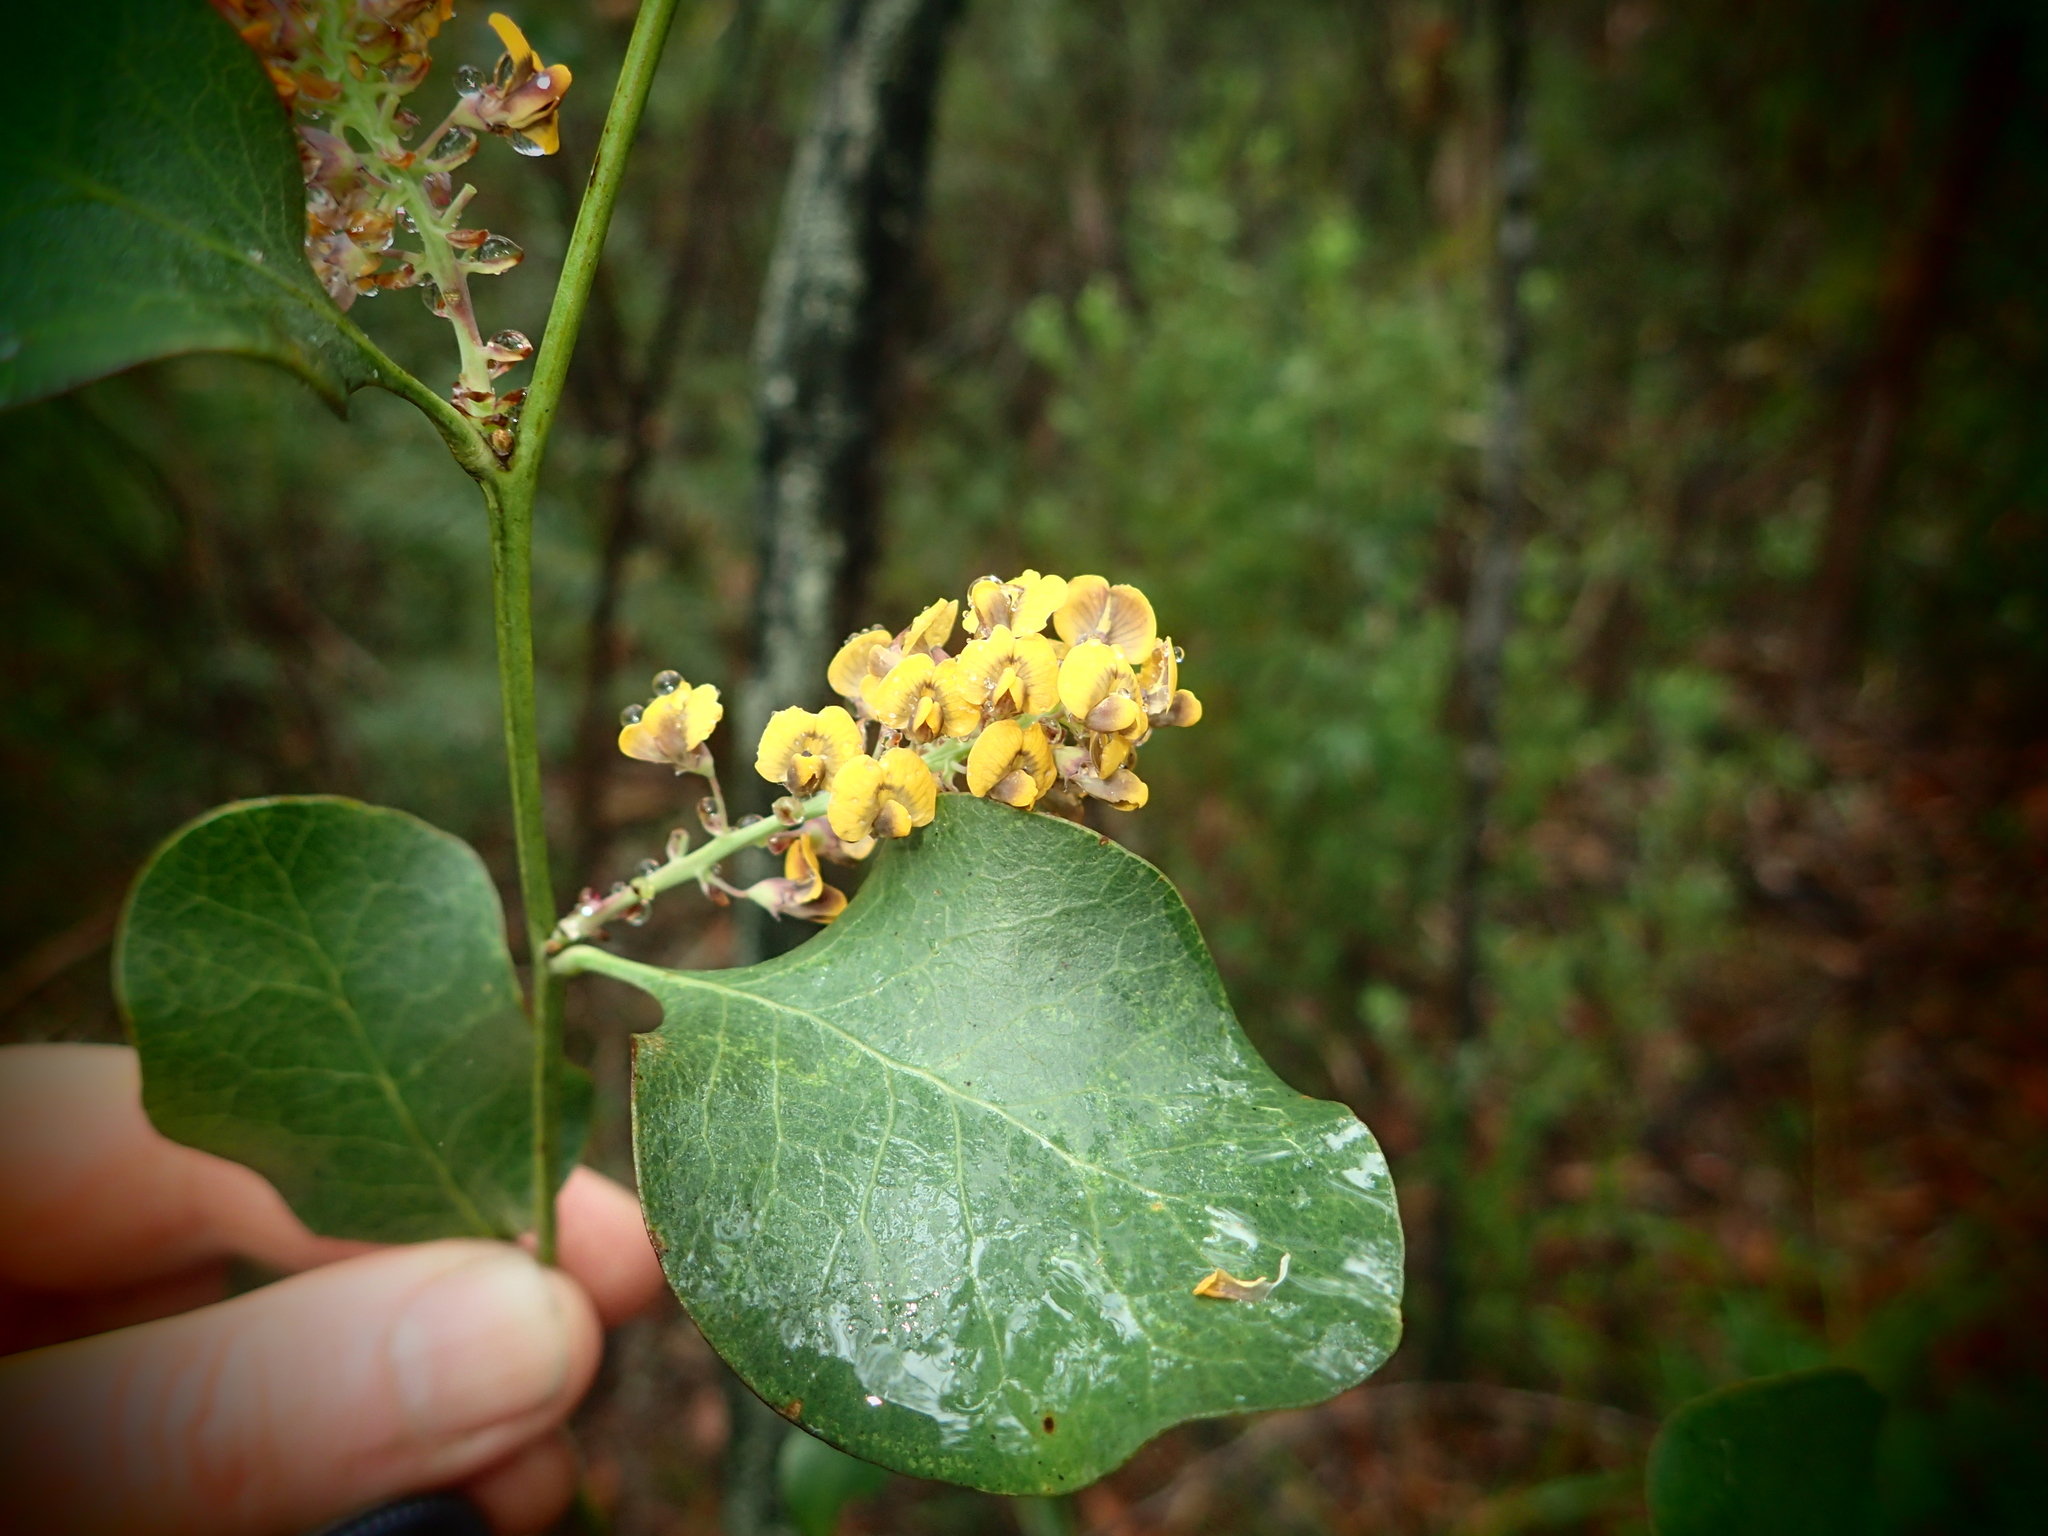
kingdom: Plantae
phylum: Tracheophyta
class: Magnoliopsida
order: Fabales
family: Fabaceae
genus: Daviesia
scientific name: Daviesia latifolia
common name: Hop bitter-pea
